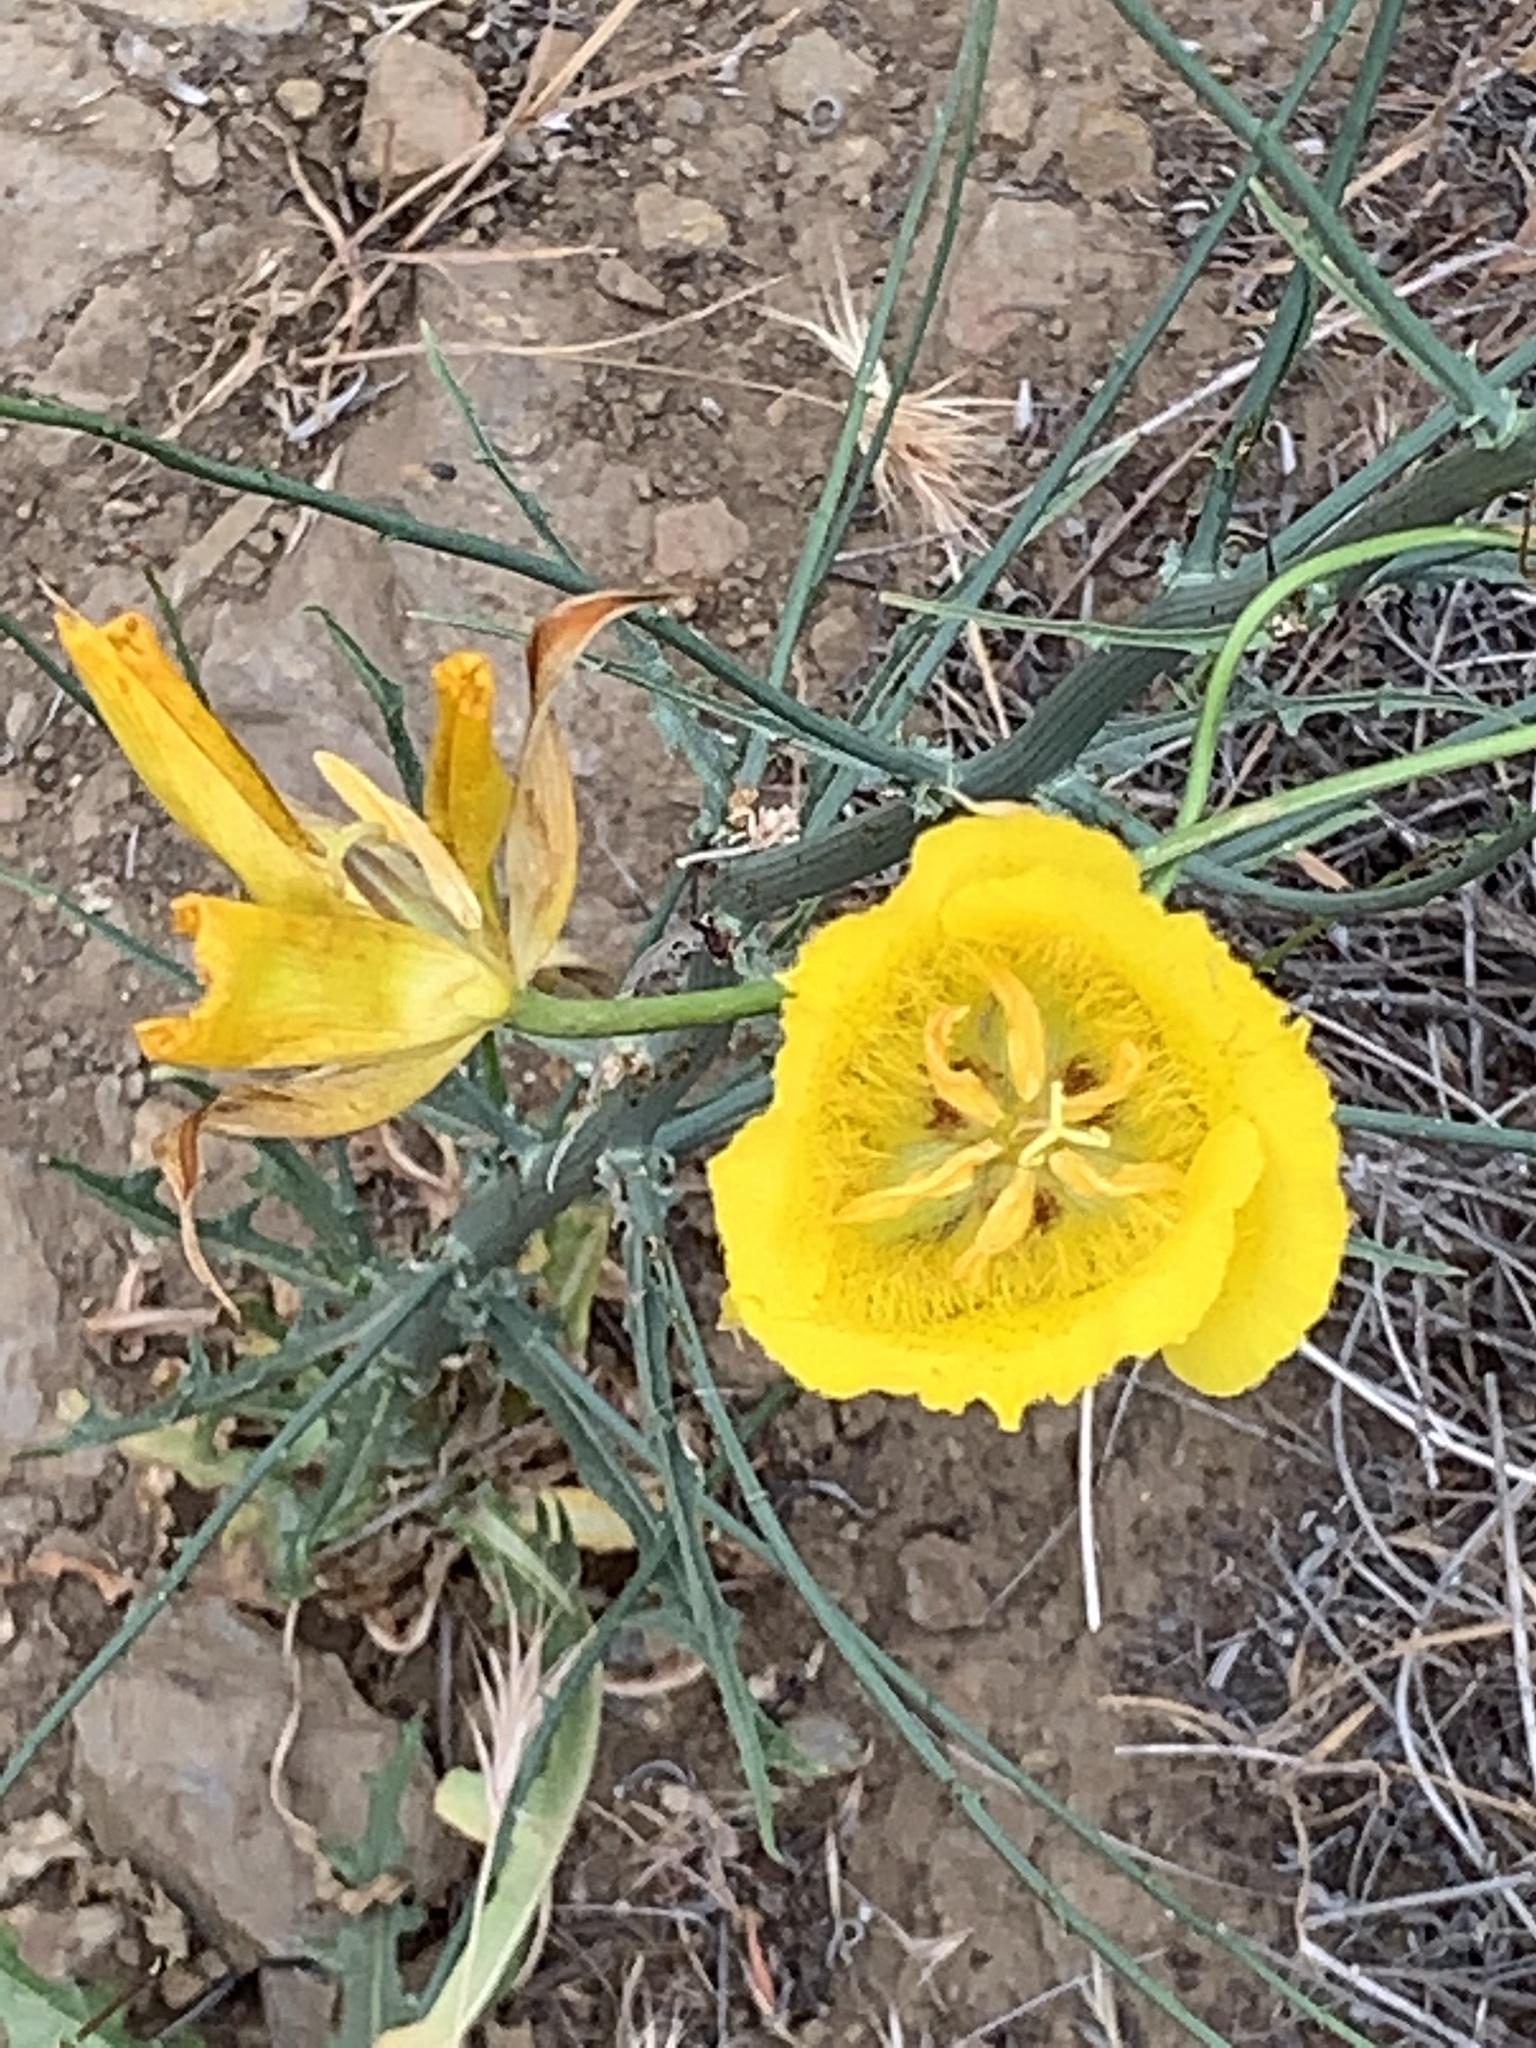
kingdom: Plantae
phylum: Tracheophyta
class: Liliopsida
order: Liliales
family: Liliaceae
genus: Calochortus
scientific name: Calochortus weedii
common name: Weed's mariposa-lily
